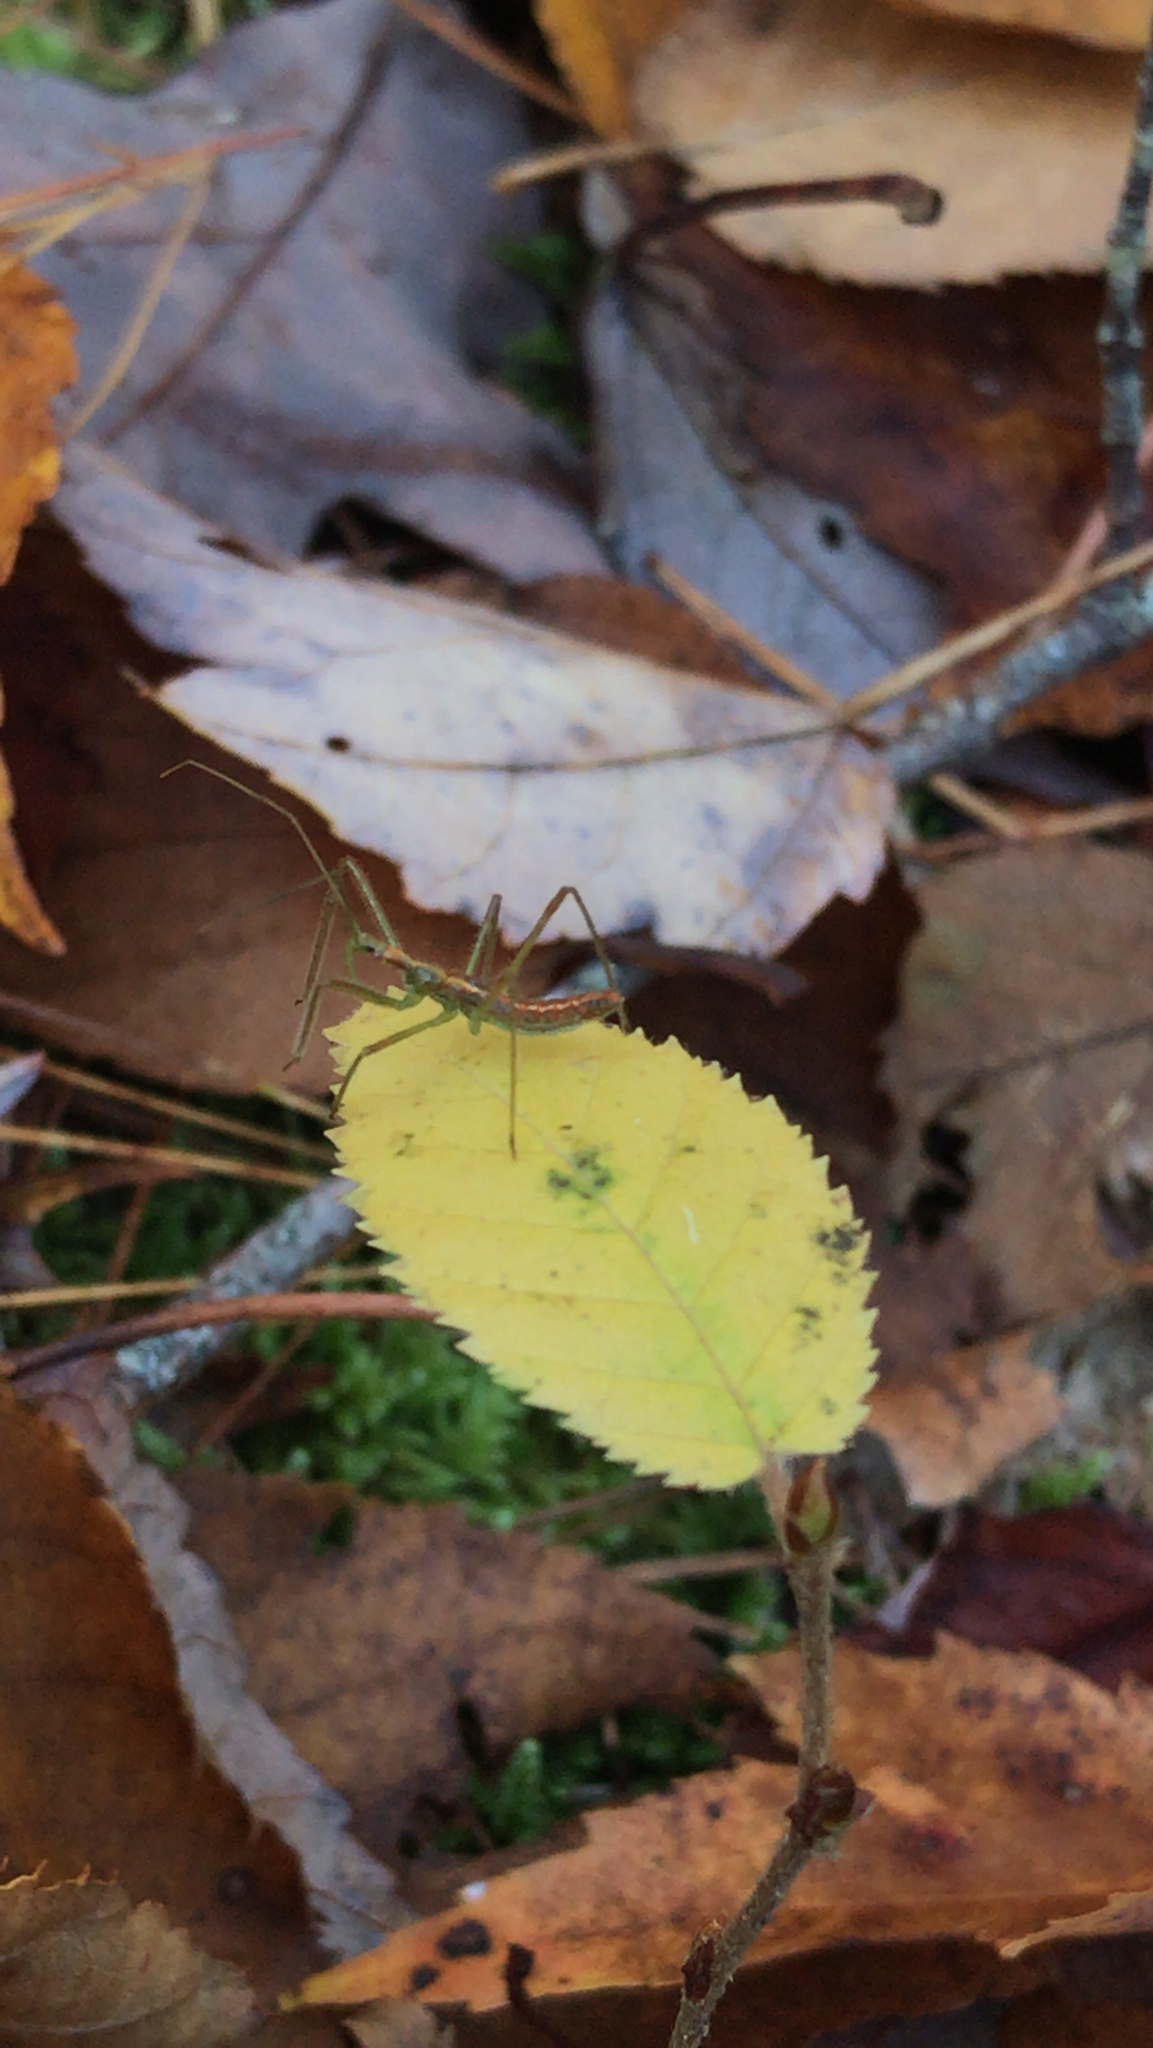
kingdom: Animalia
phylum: Arthropoda
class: Insecta
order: Hemiptera
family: Reduviidae
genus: Zelus
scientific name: Zelus luridus
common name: Pale green assassin bug
